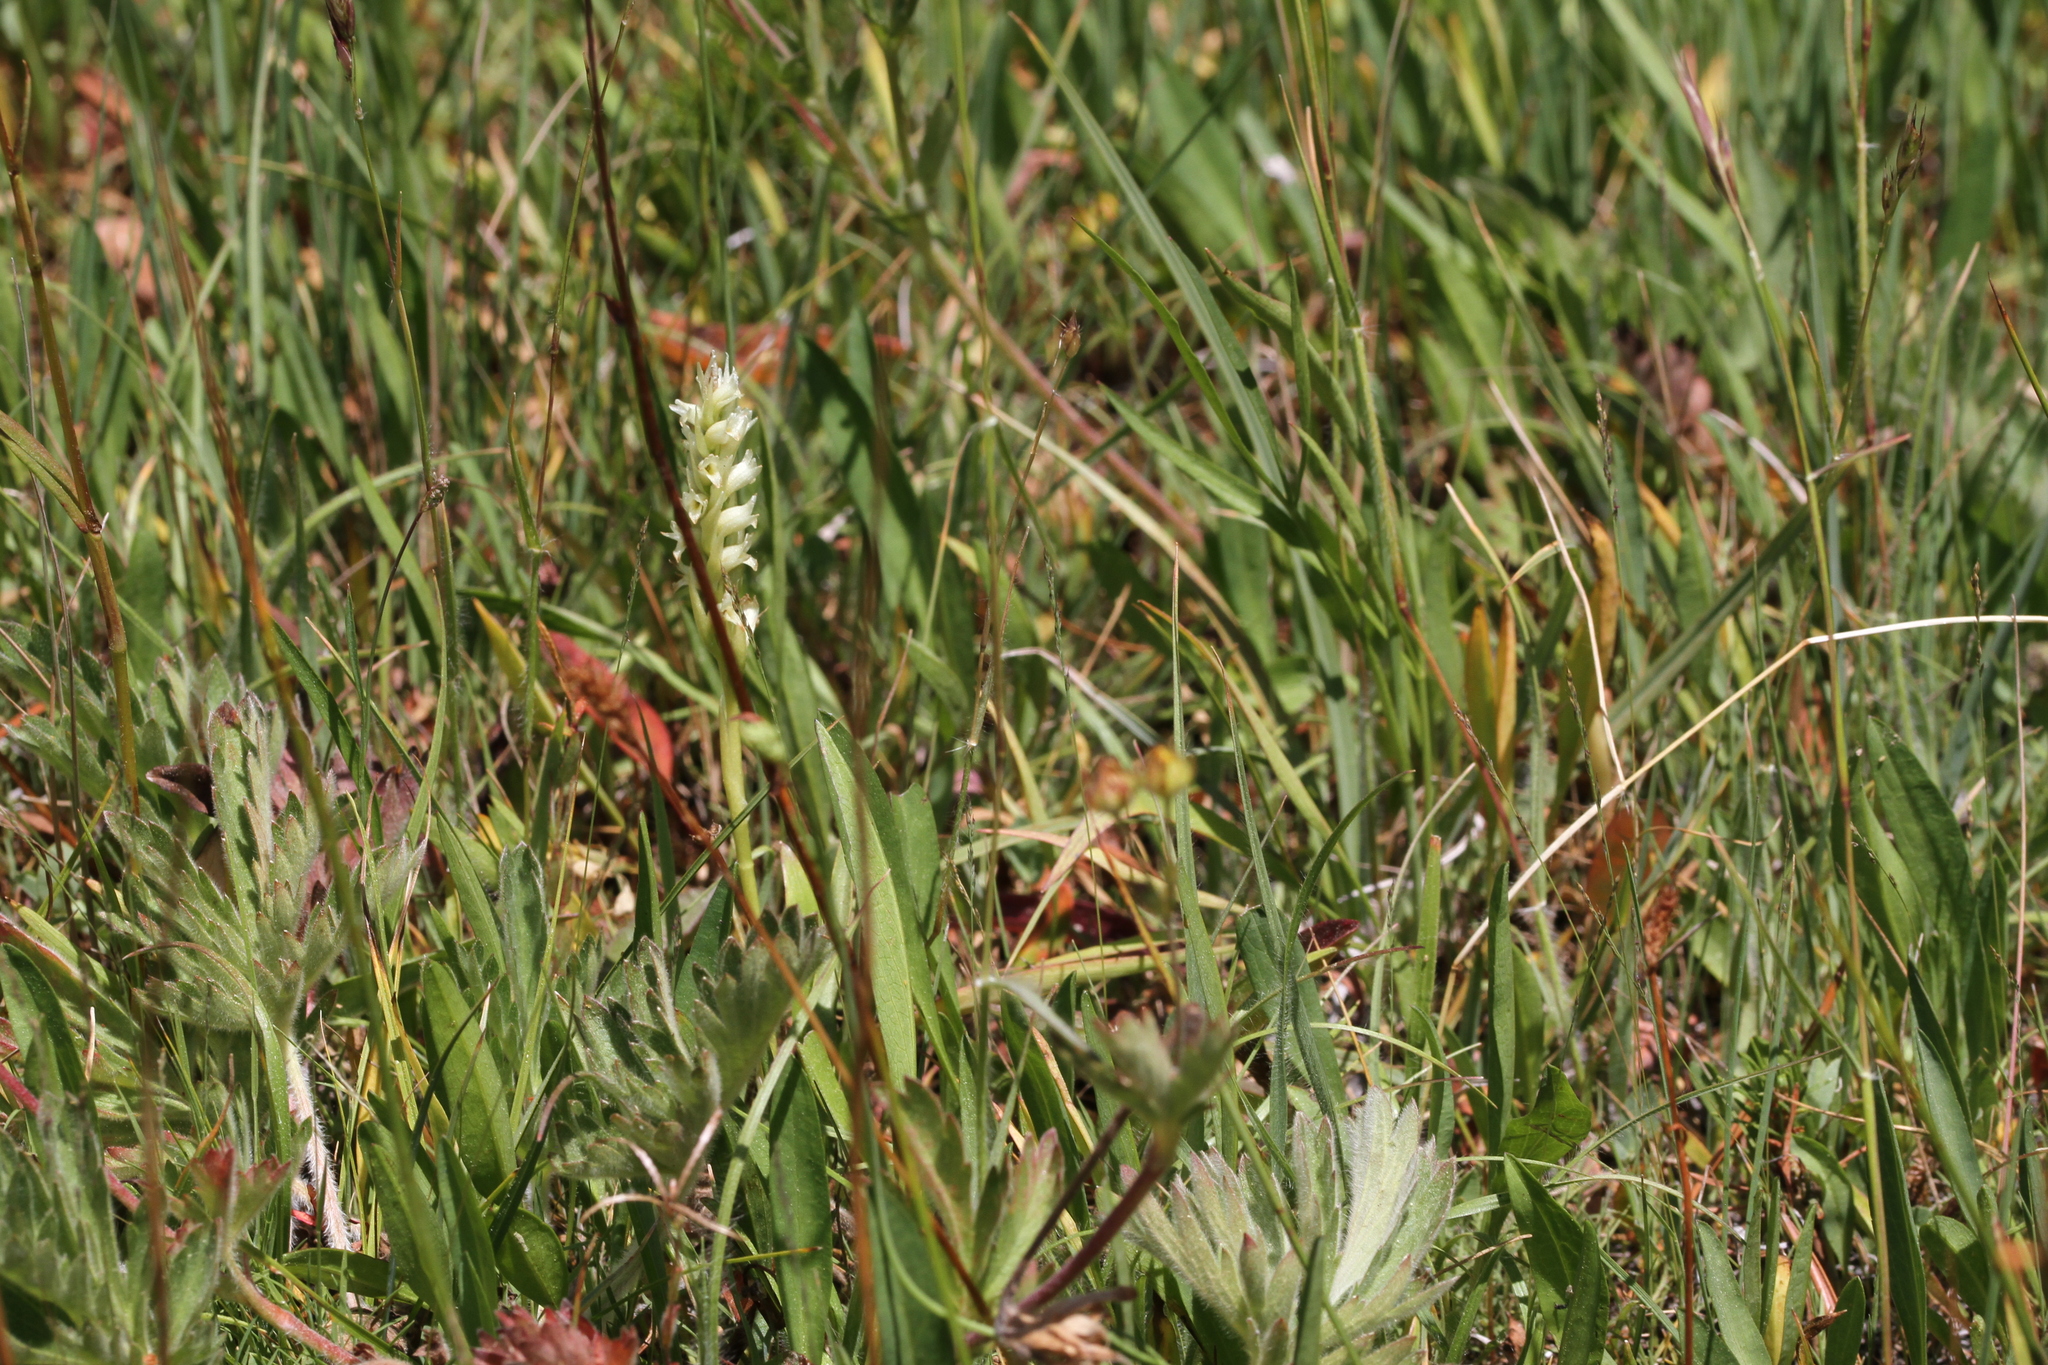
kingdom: Plantae
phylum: Tracheophyta
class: Liliopsida
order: Asparagales
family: Orchidaceae
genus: Spiranthes
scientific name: Spiranthes stellata
